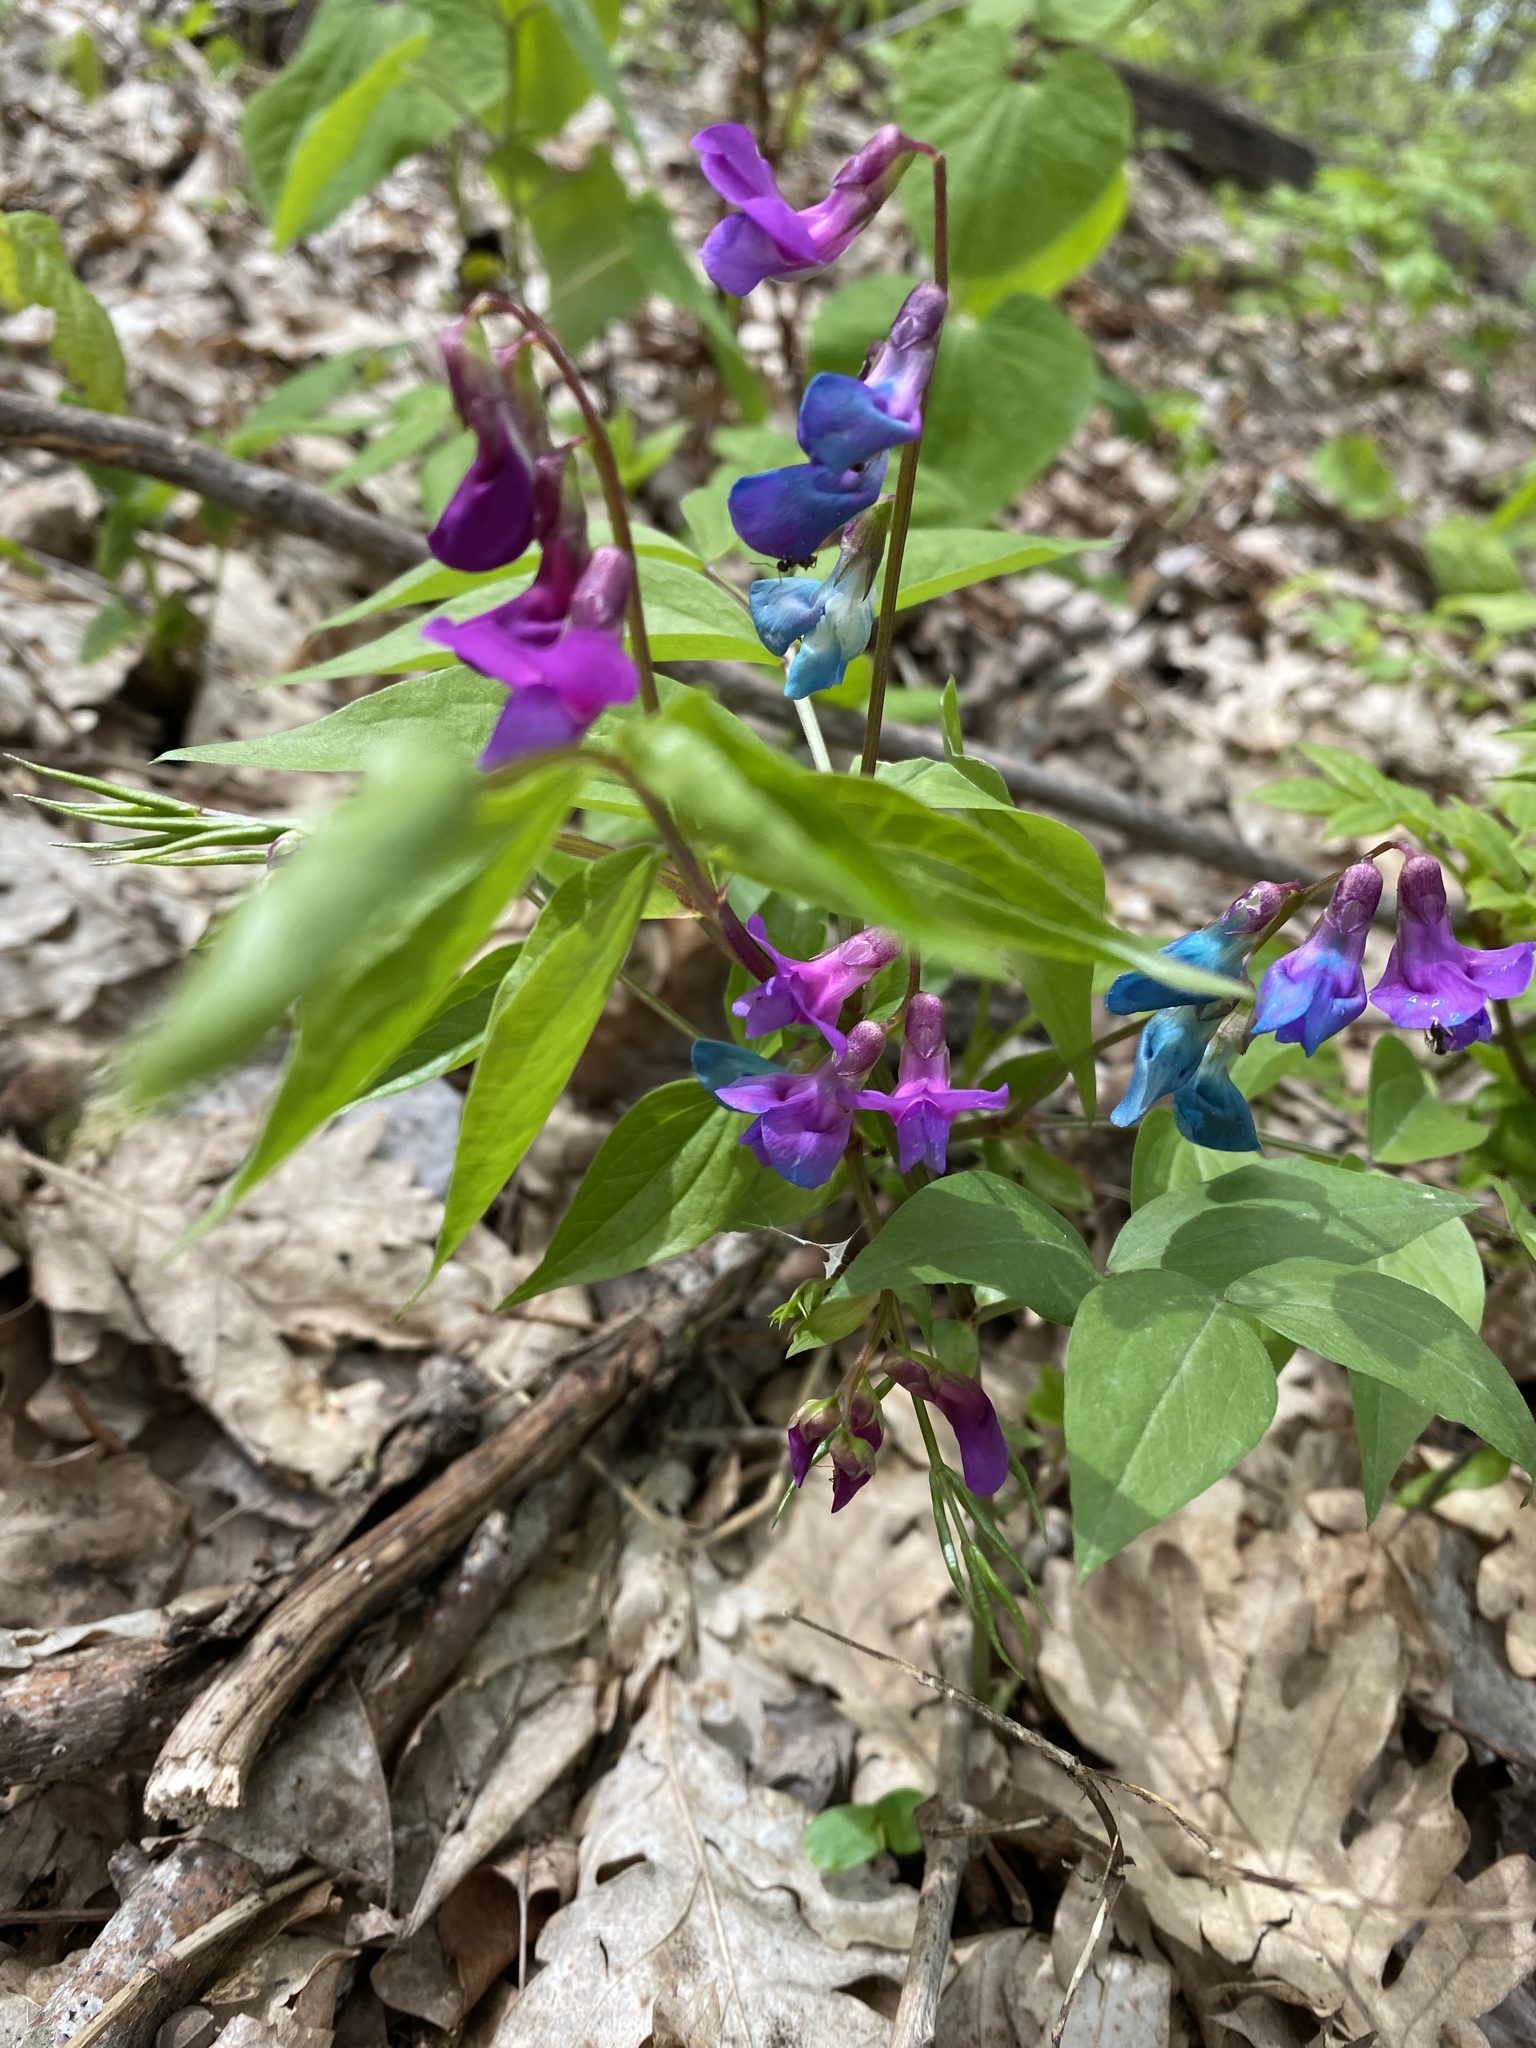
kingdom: Plantae
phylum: Tracheophyta
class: Magnoliopsida
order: Fabales
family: Fabaceae
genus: Lathyrus
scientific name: Lathyrus vernus
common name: Spring pea
